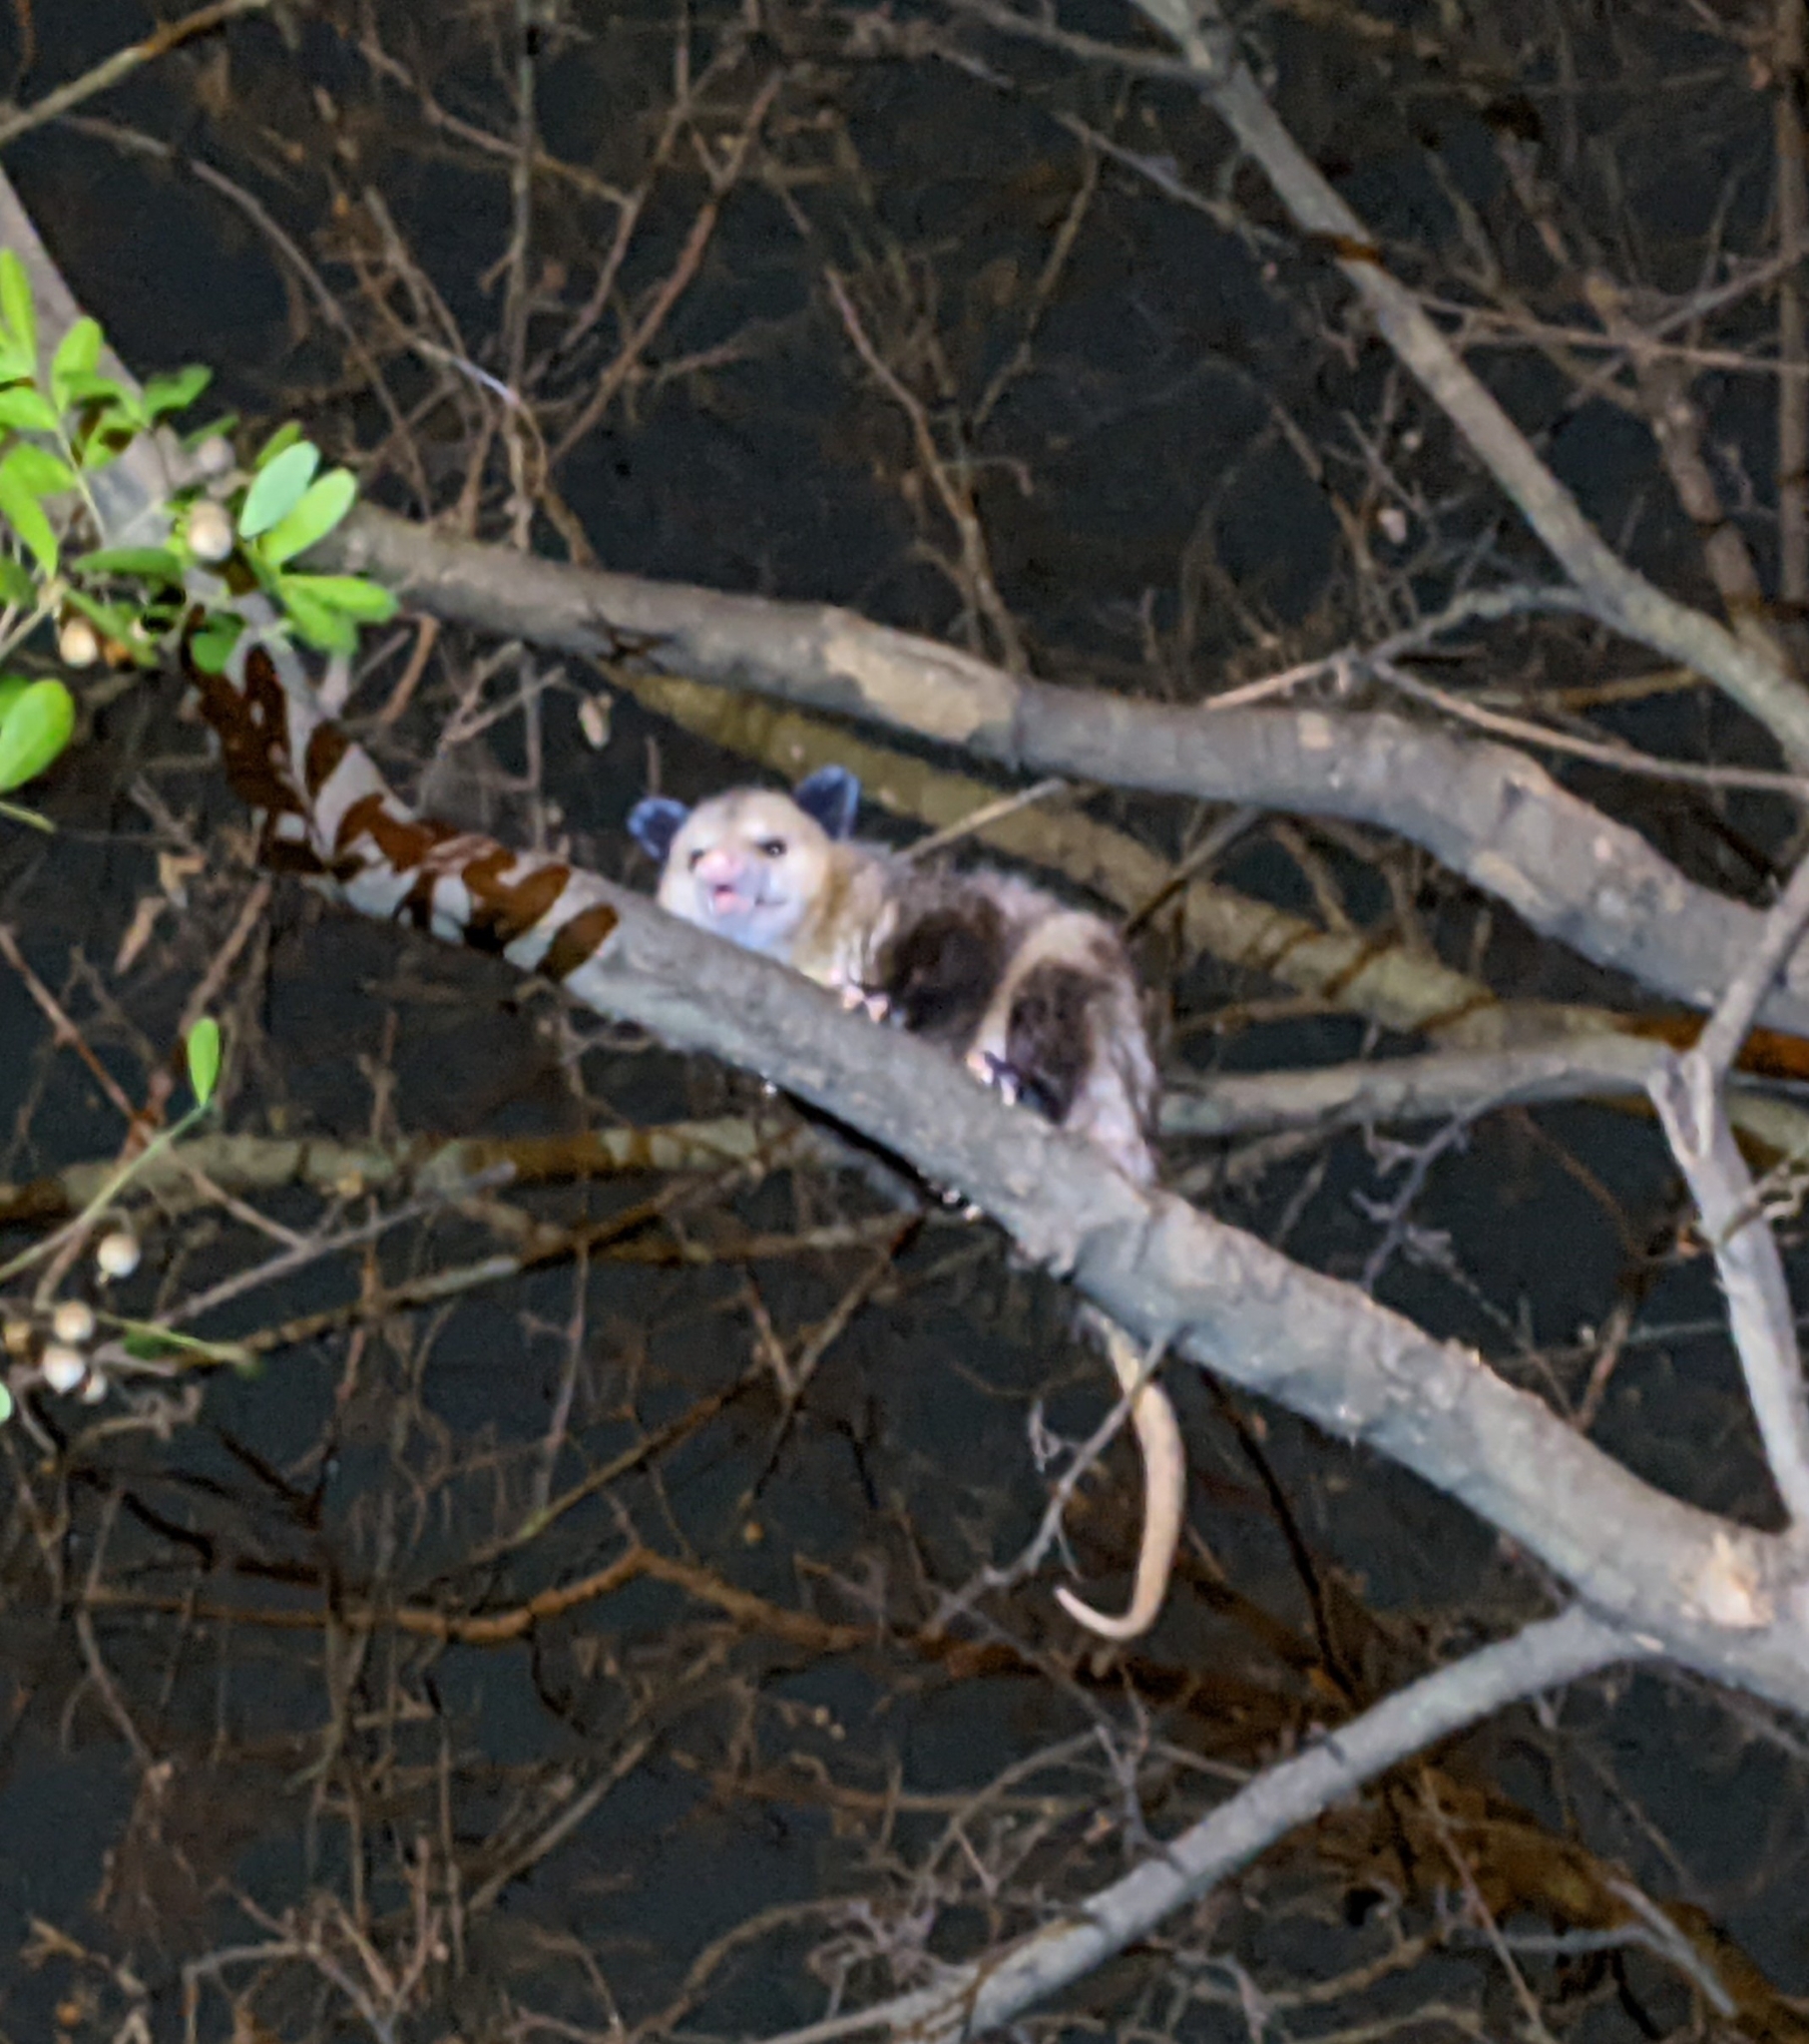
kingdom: Animalia
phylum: Chordata
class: Mammalia
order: Didelphimorphia
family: Didelphidae
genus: Didelphis
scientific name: Didelphis virginiana
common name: Virginia opossum
